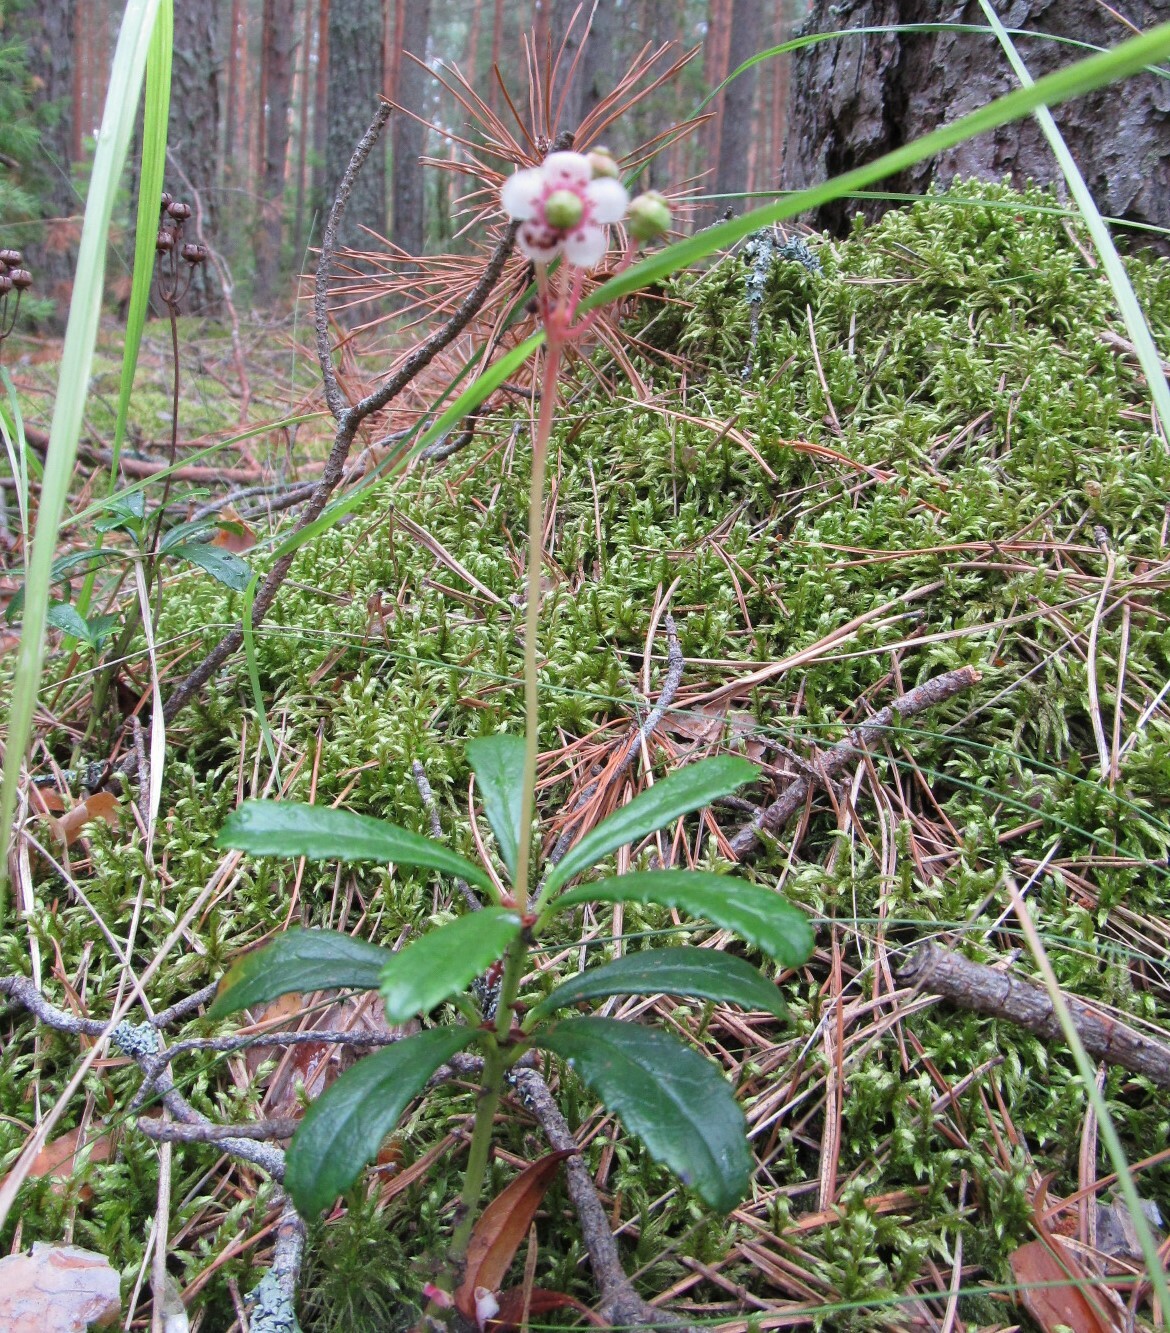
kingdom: Plantae
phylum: Tracheophyta
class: Magnoliopsida
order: Ericales
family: Ericaceae
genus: Chimaphila
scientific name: Chimaphila umbellata
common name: Pipsissewa
